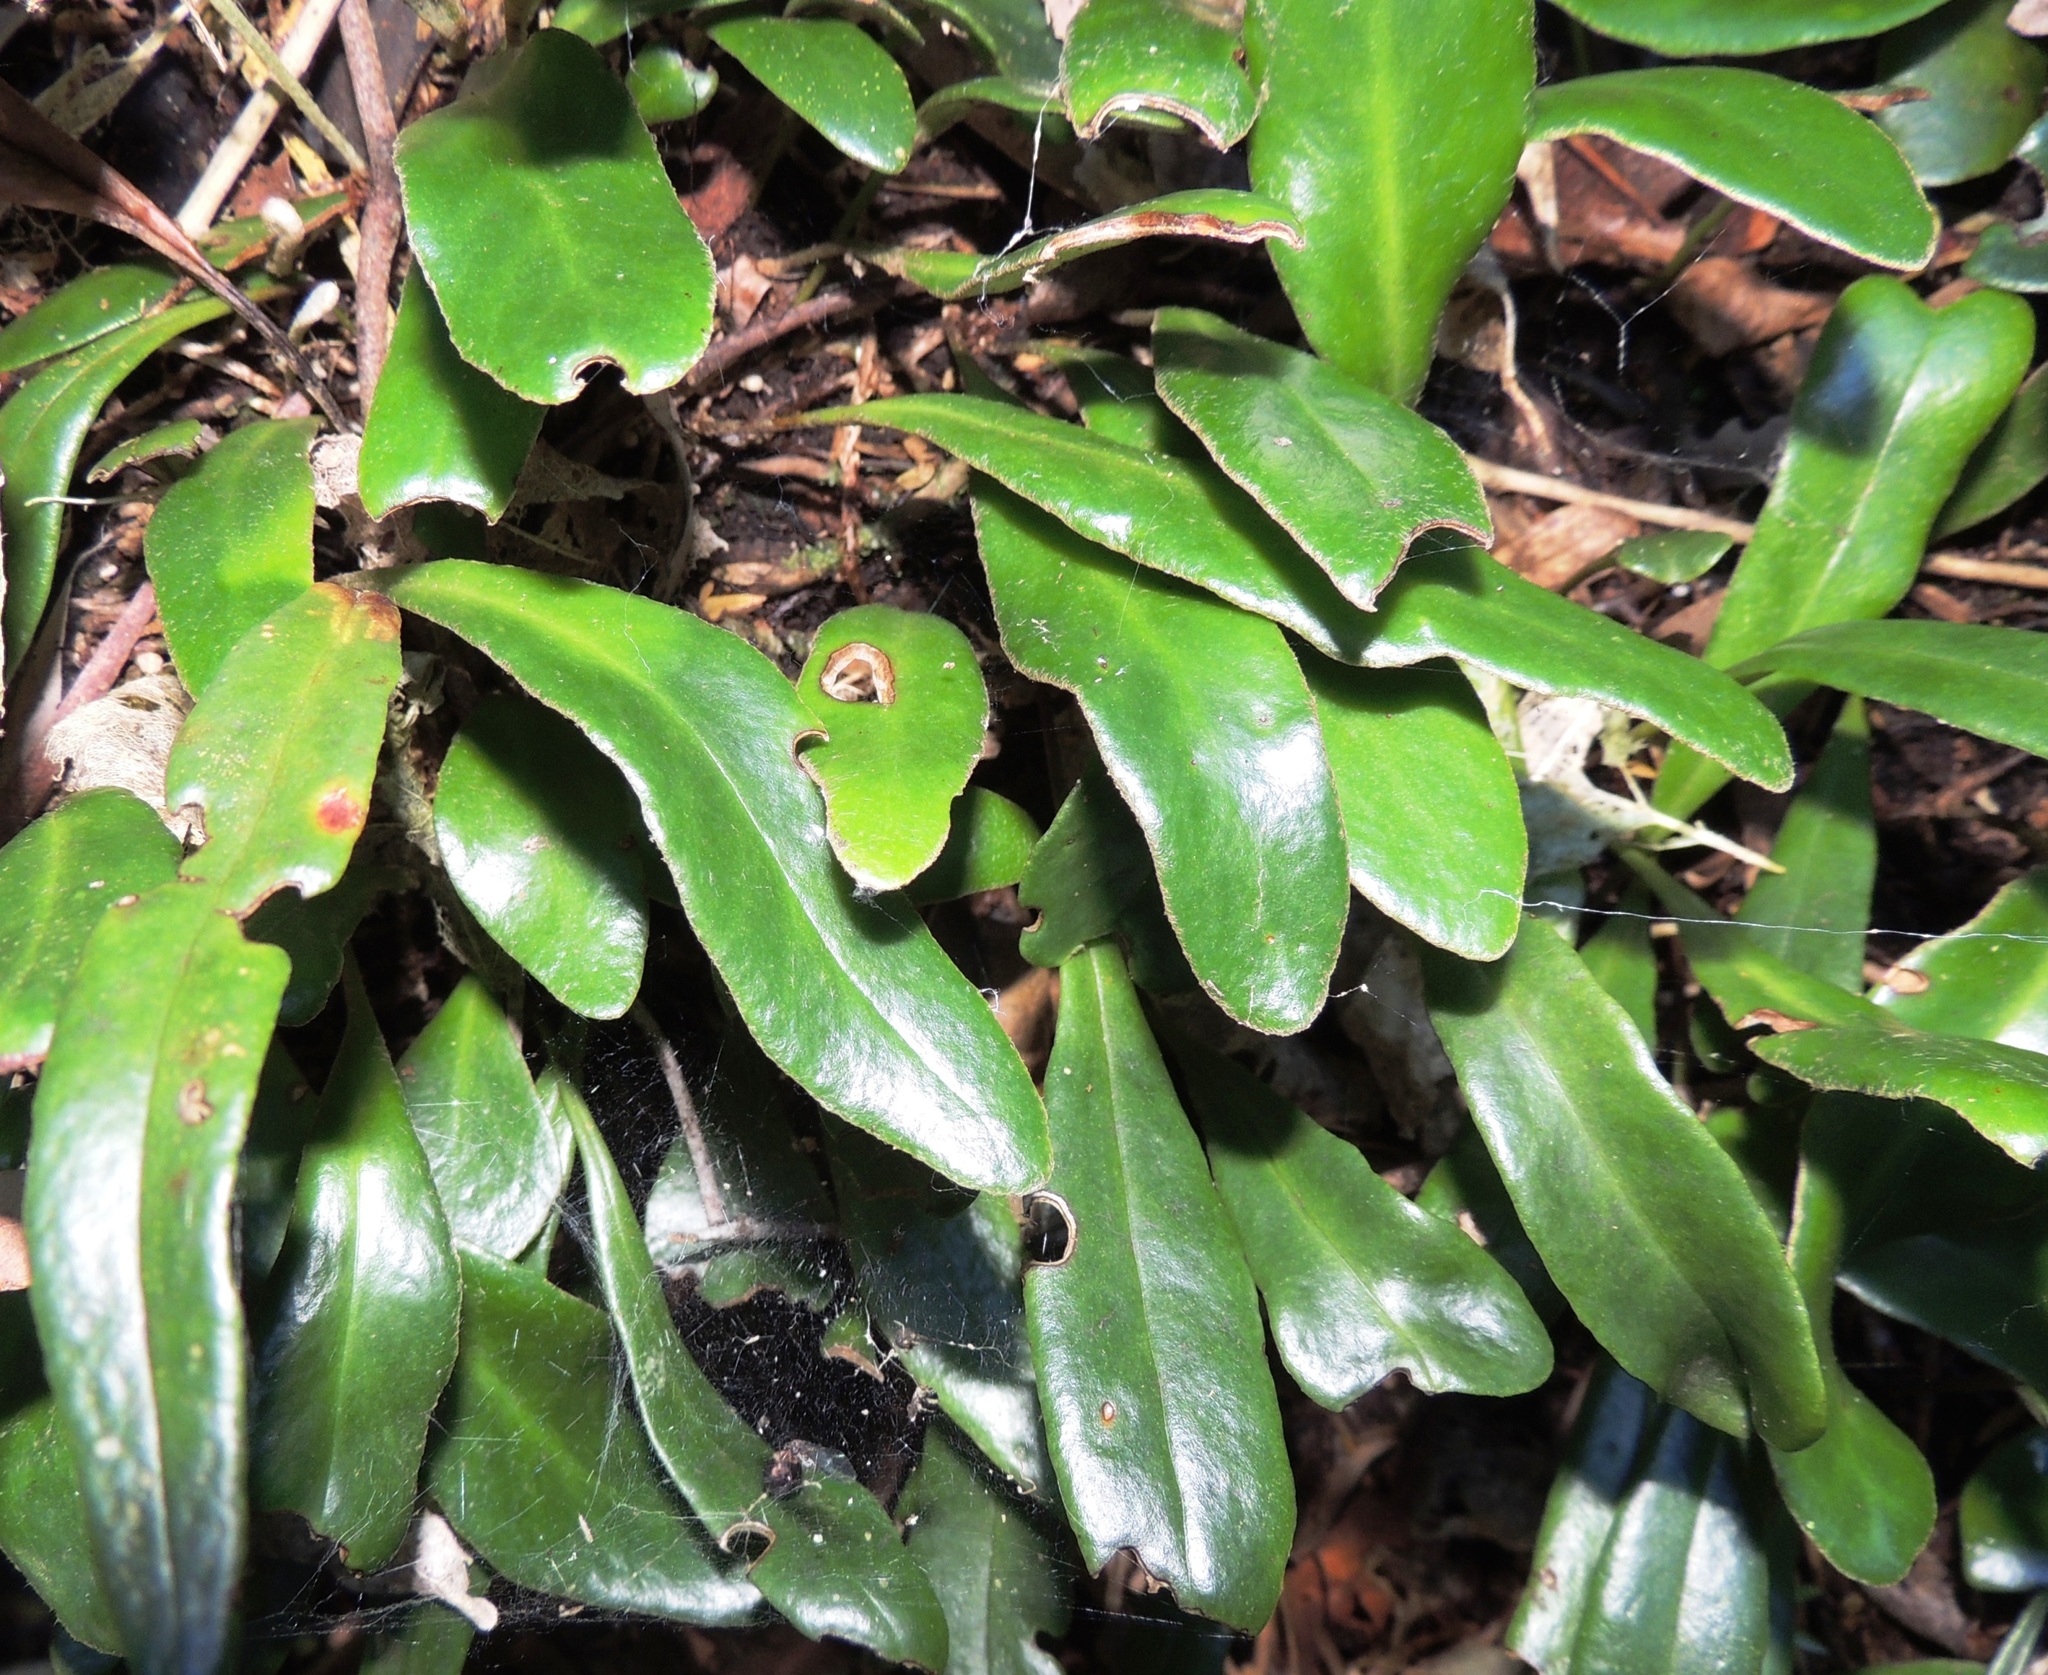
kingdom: Plantae
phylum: Tracheophyta
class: Polypodiopsida
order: Polypodiales
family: Polypodiaceae
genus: Pyrrosia
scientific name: Pyrrosia eleagnifolia
